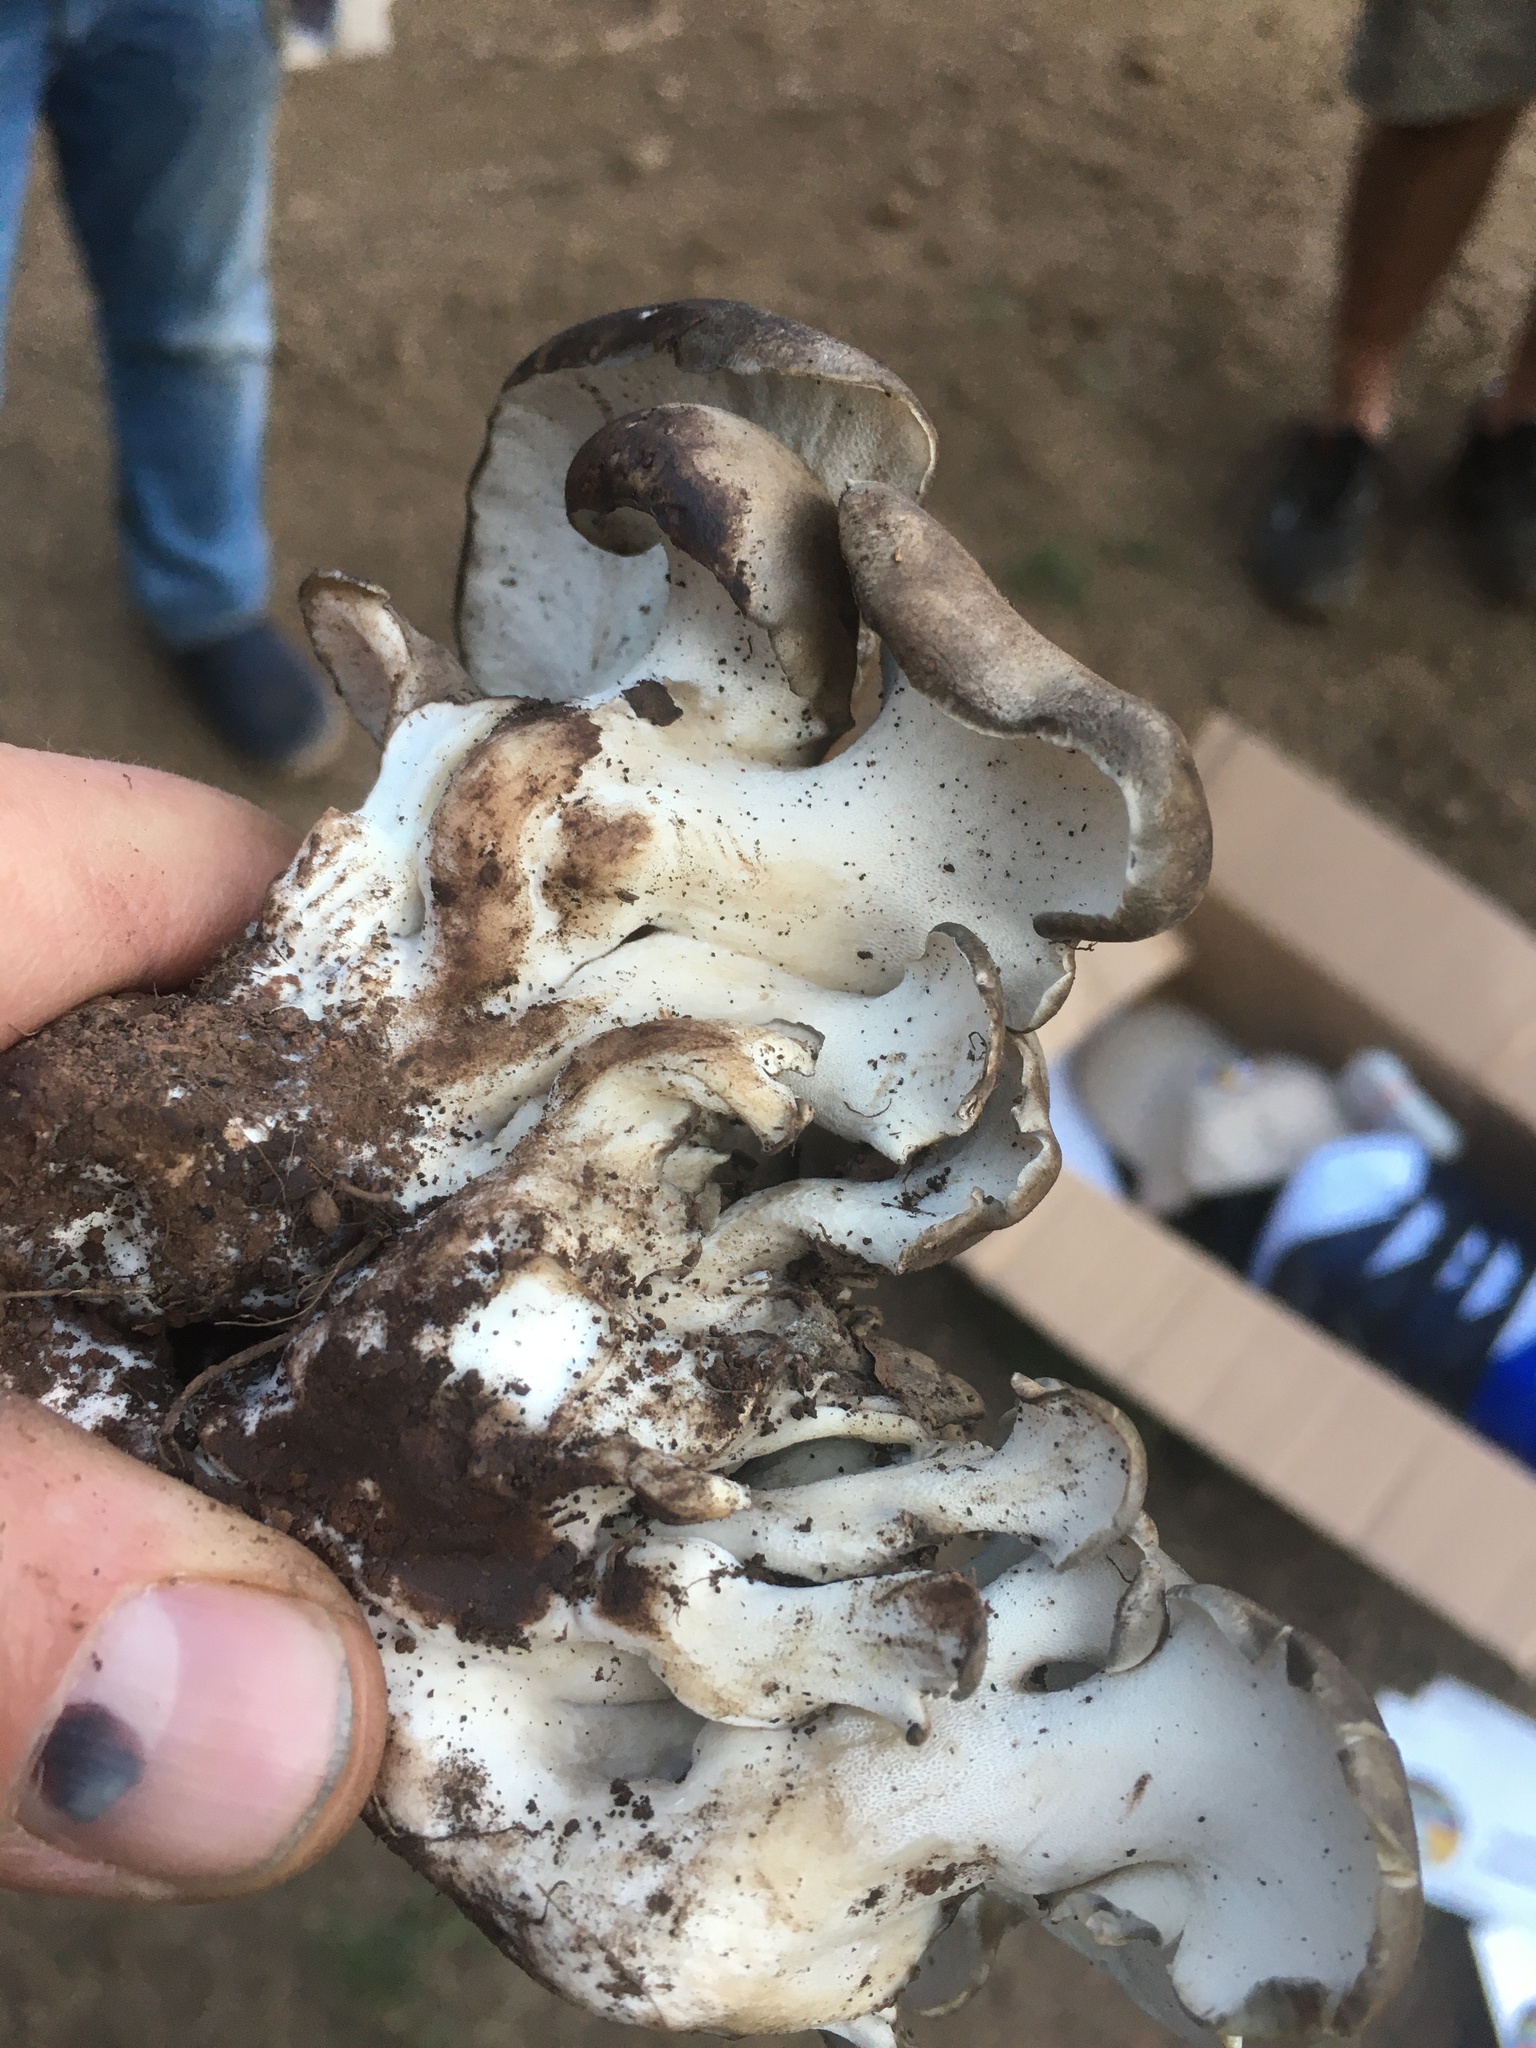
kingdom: Fungi
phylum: Basidiomycota
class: Agaricomycetes
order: Polyporales
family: Dacryobolaceae
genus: Osteina
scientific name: Osteina obducta
